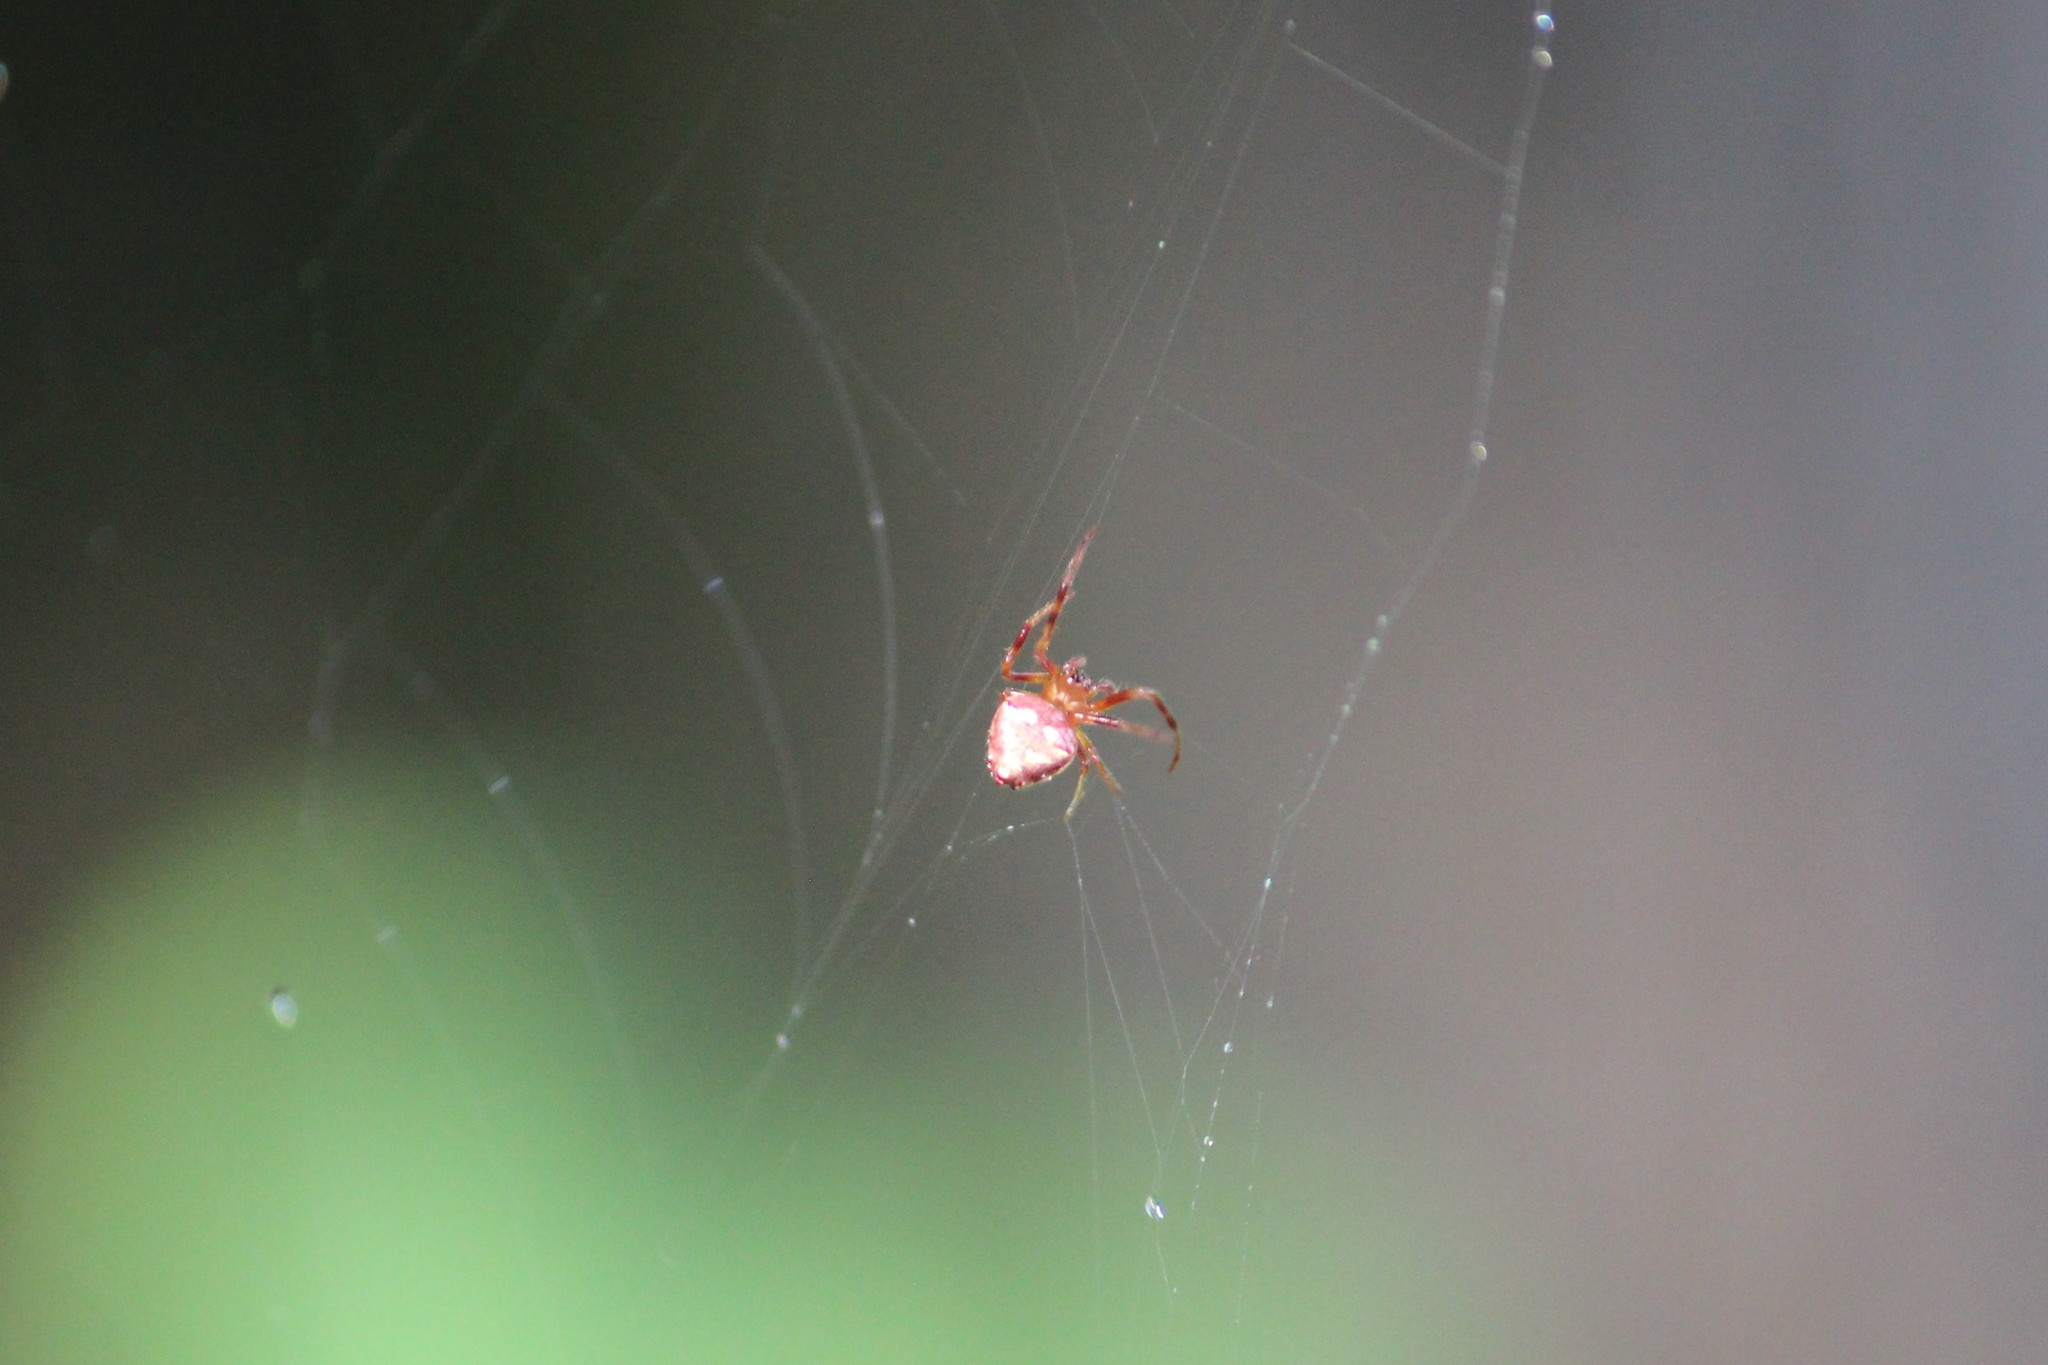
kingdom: Animalia
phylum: Arthropoda
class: Arachnida
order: Araneae
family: Araneidae
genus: Verrucosa
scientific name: Verrucosa arenata
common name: Orb weavers
